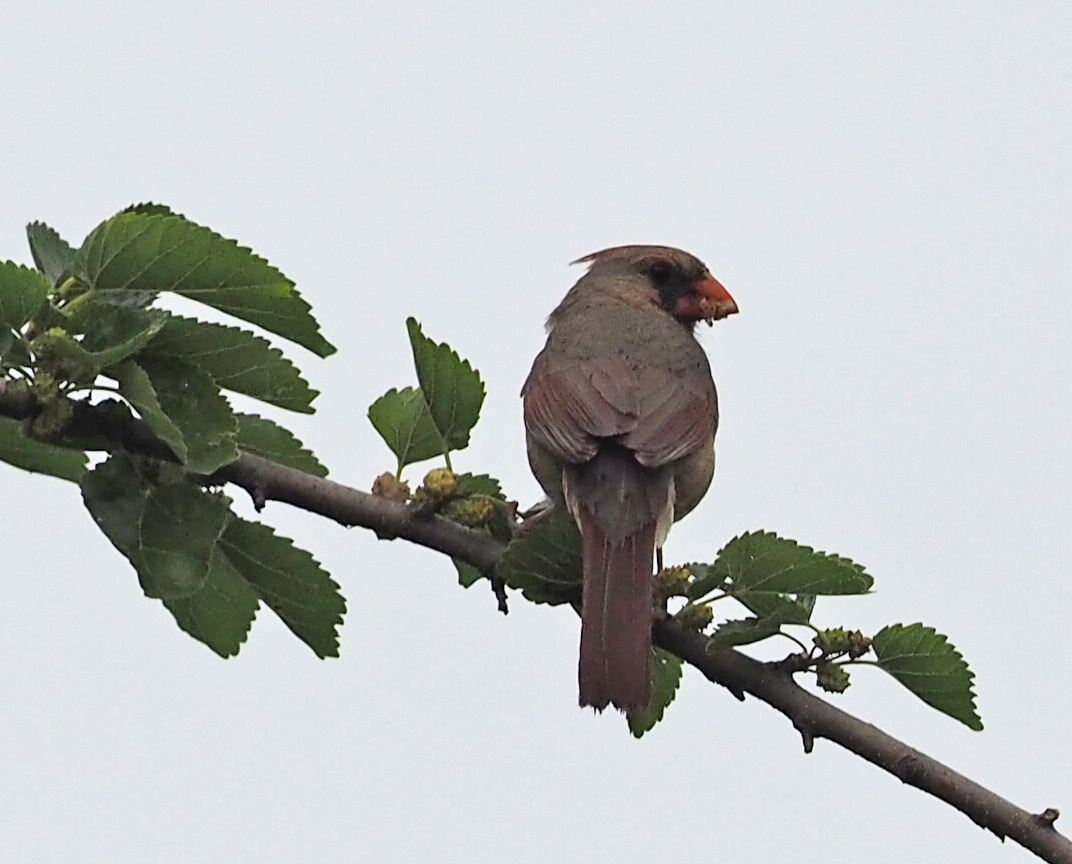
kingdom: Animalia
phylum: Chordata
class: Aves
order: Passeriformes
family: Cardinalidae
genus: Cardinalis
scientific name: Cardinalis cardinalis
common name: Northern cardinal
